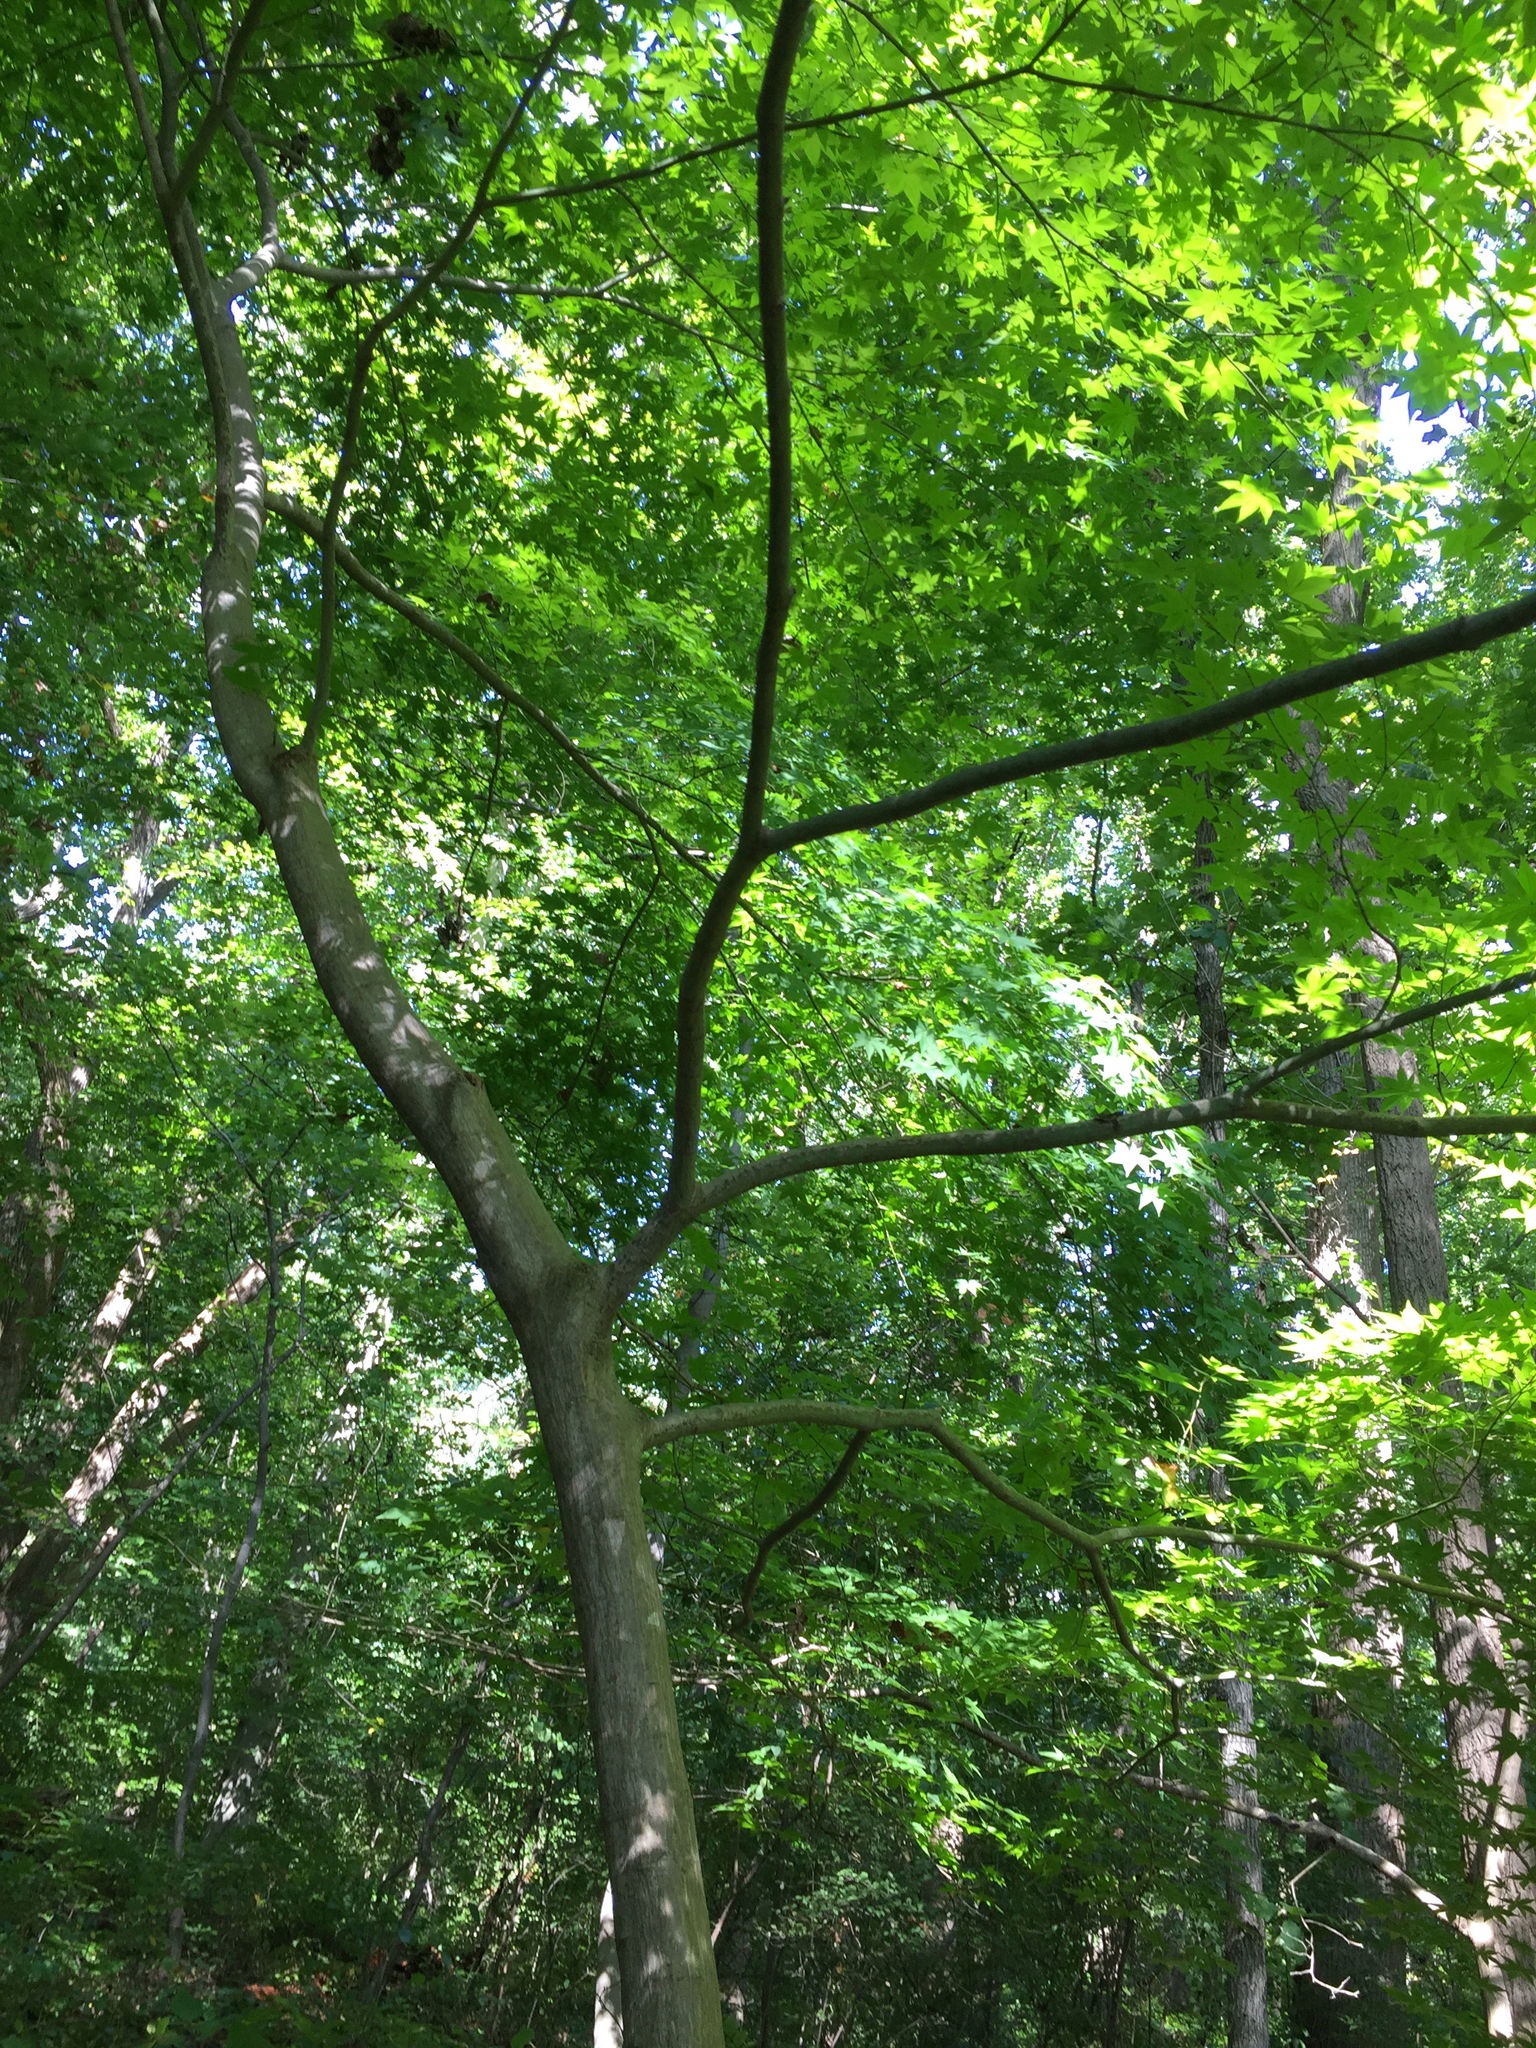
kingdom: Plantae
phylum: Tracheophyta
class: Magnoliopsida
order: Sapindales
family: Sapindaceae
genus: Acer
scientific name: Acer palmatum
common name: Japanese maple
